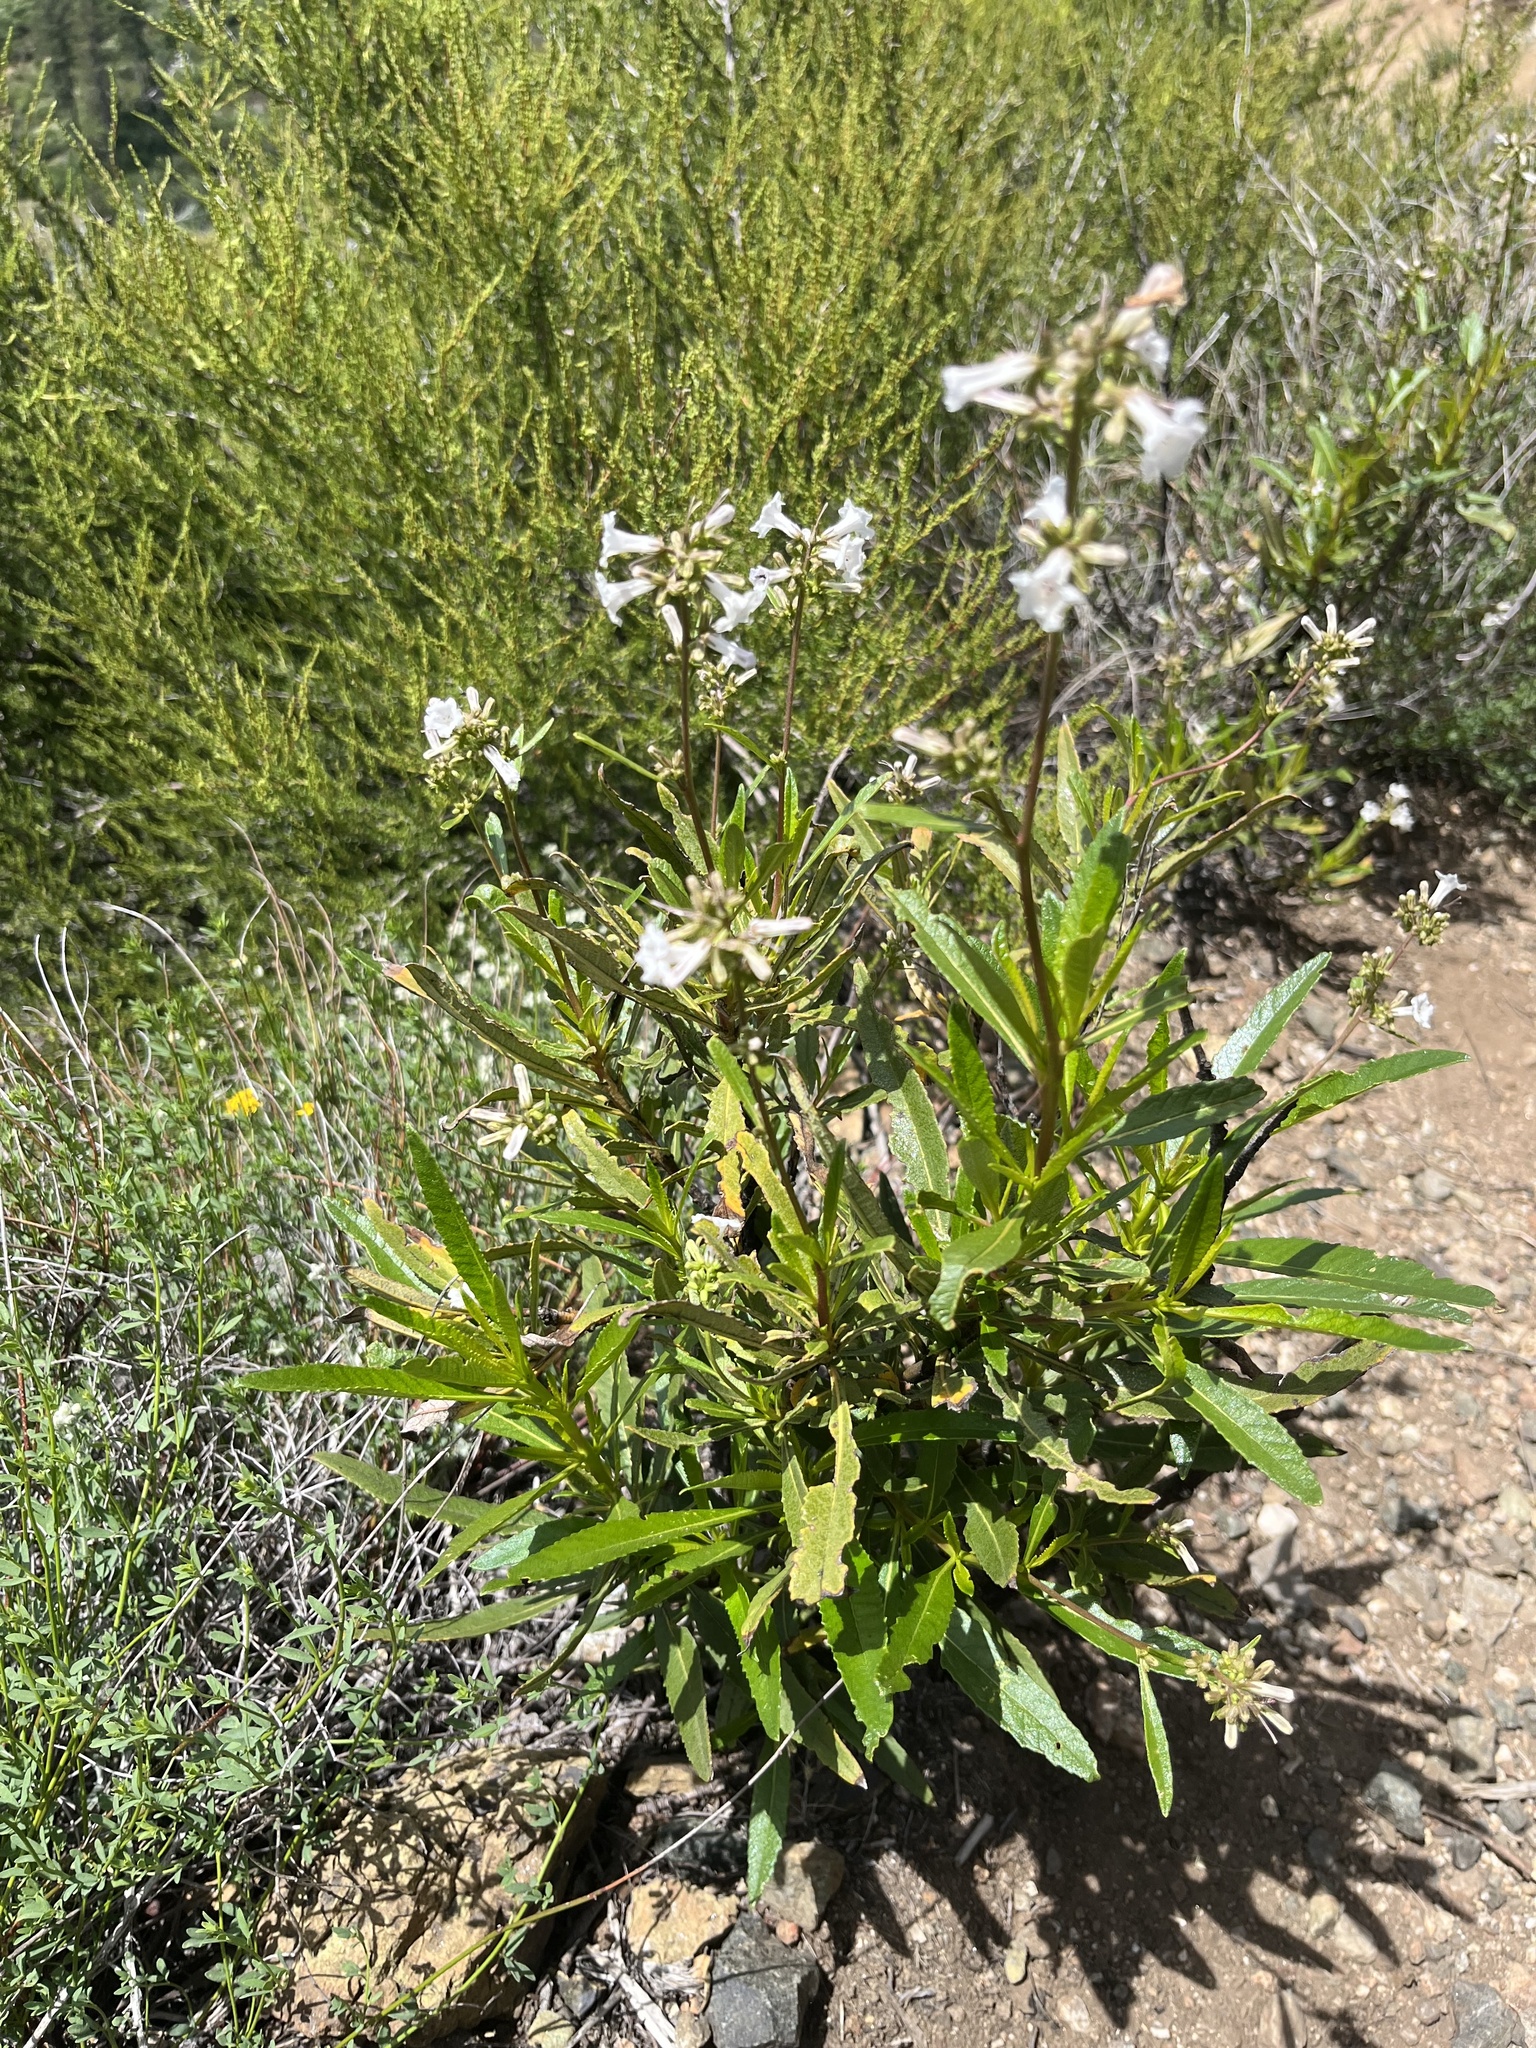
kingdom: Plantae
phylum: Tracheophyta
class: Magnoliopsida
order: Boraginales
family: Namaceae
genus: Eriodictyon
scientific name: Eriodictyon californicum
